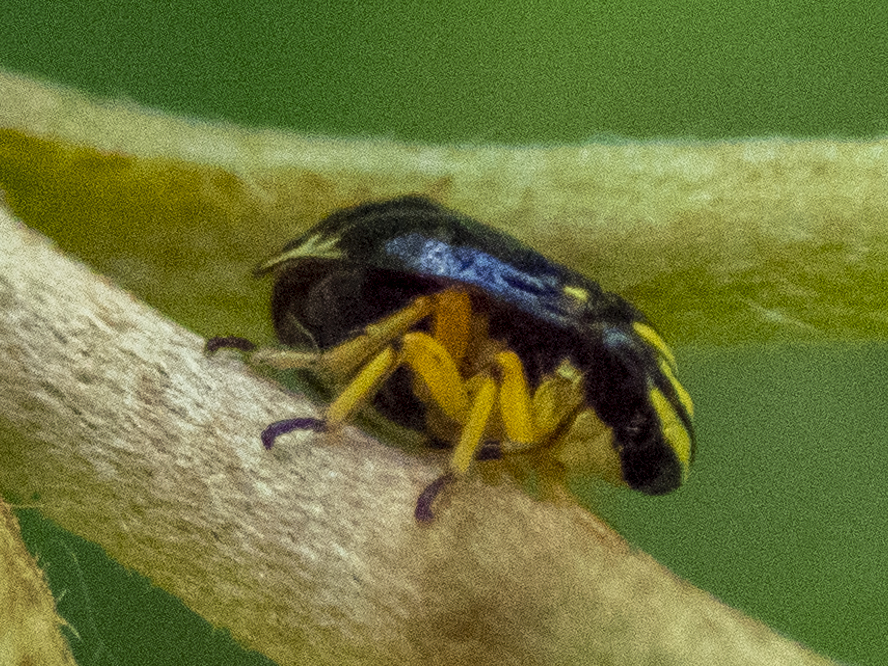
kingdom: Animalia
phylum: Arthropoda
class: Insecta
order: Hemiptera
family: Clastopteridae
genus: Clastoptera
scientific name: Clastoptera proteus
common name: Dogwood spittlebug
